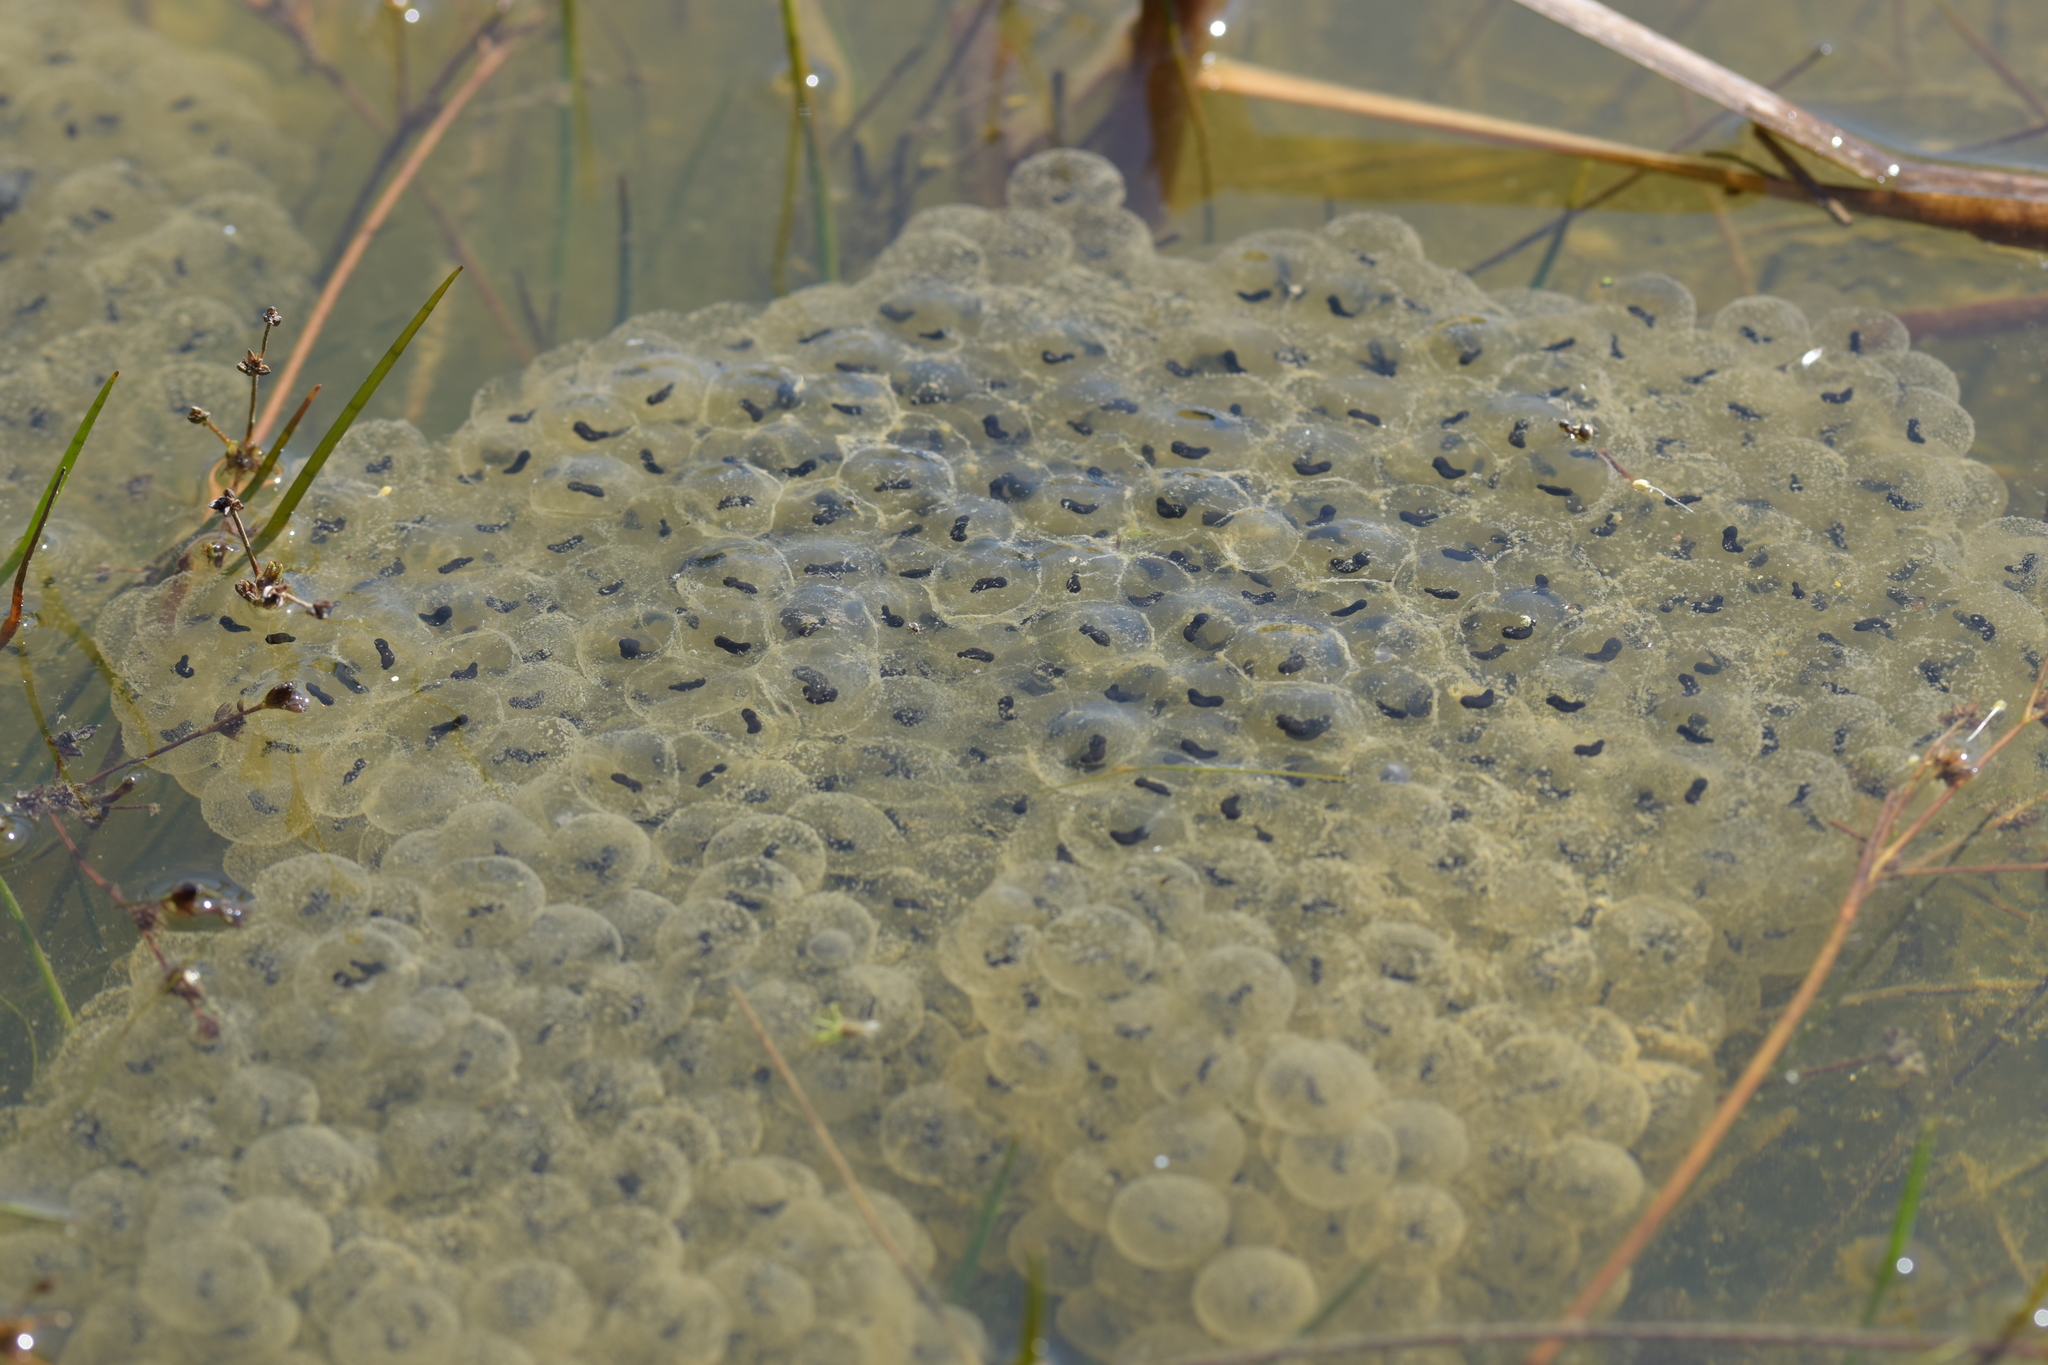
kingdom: Animalia
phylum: Chordata
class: Amphibia
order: Anura
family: Ranidae
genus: Rana
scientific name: Rana
